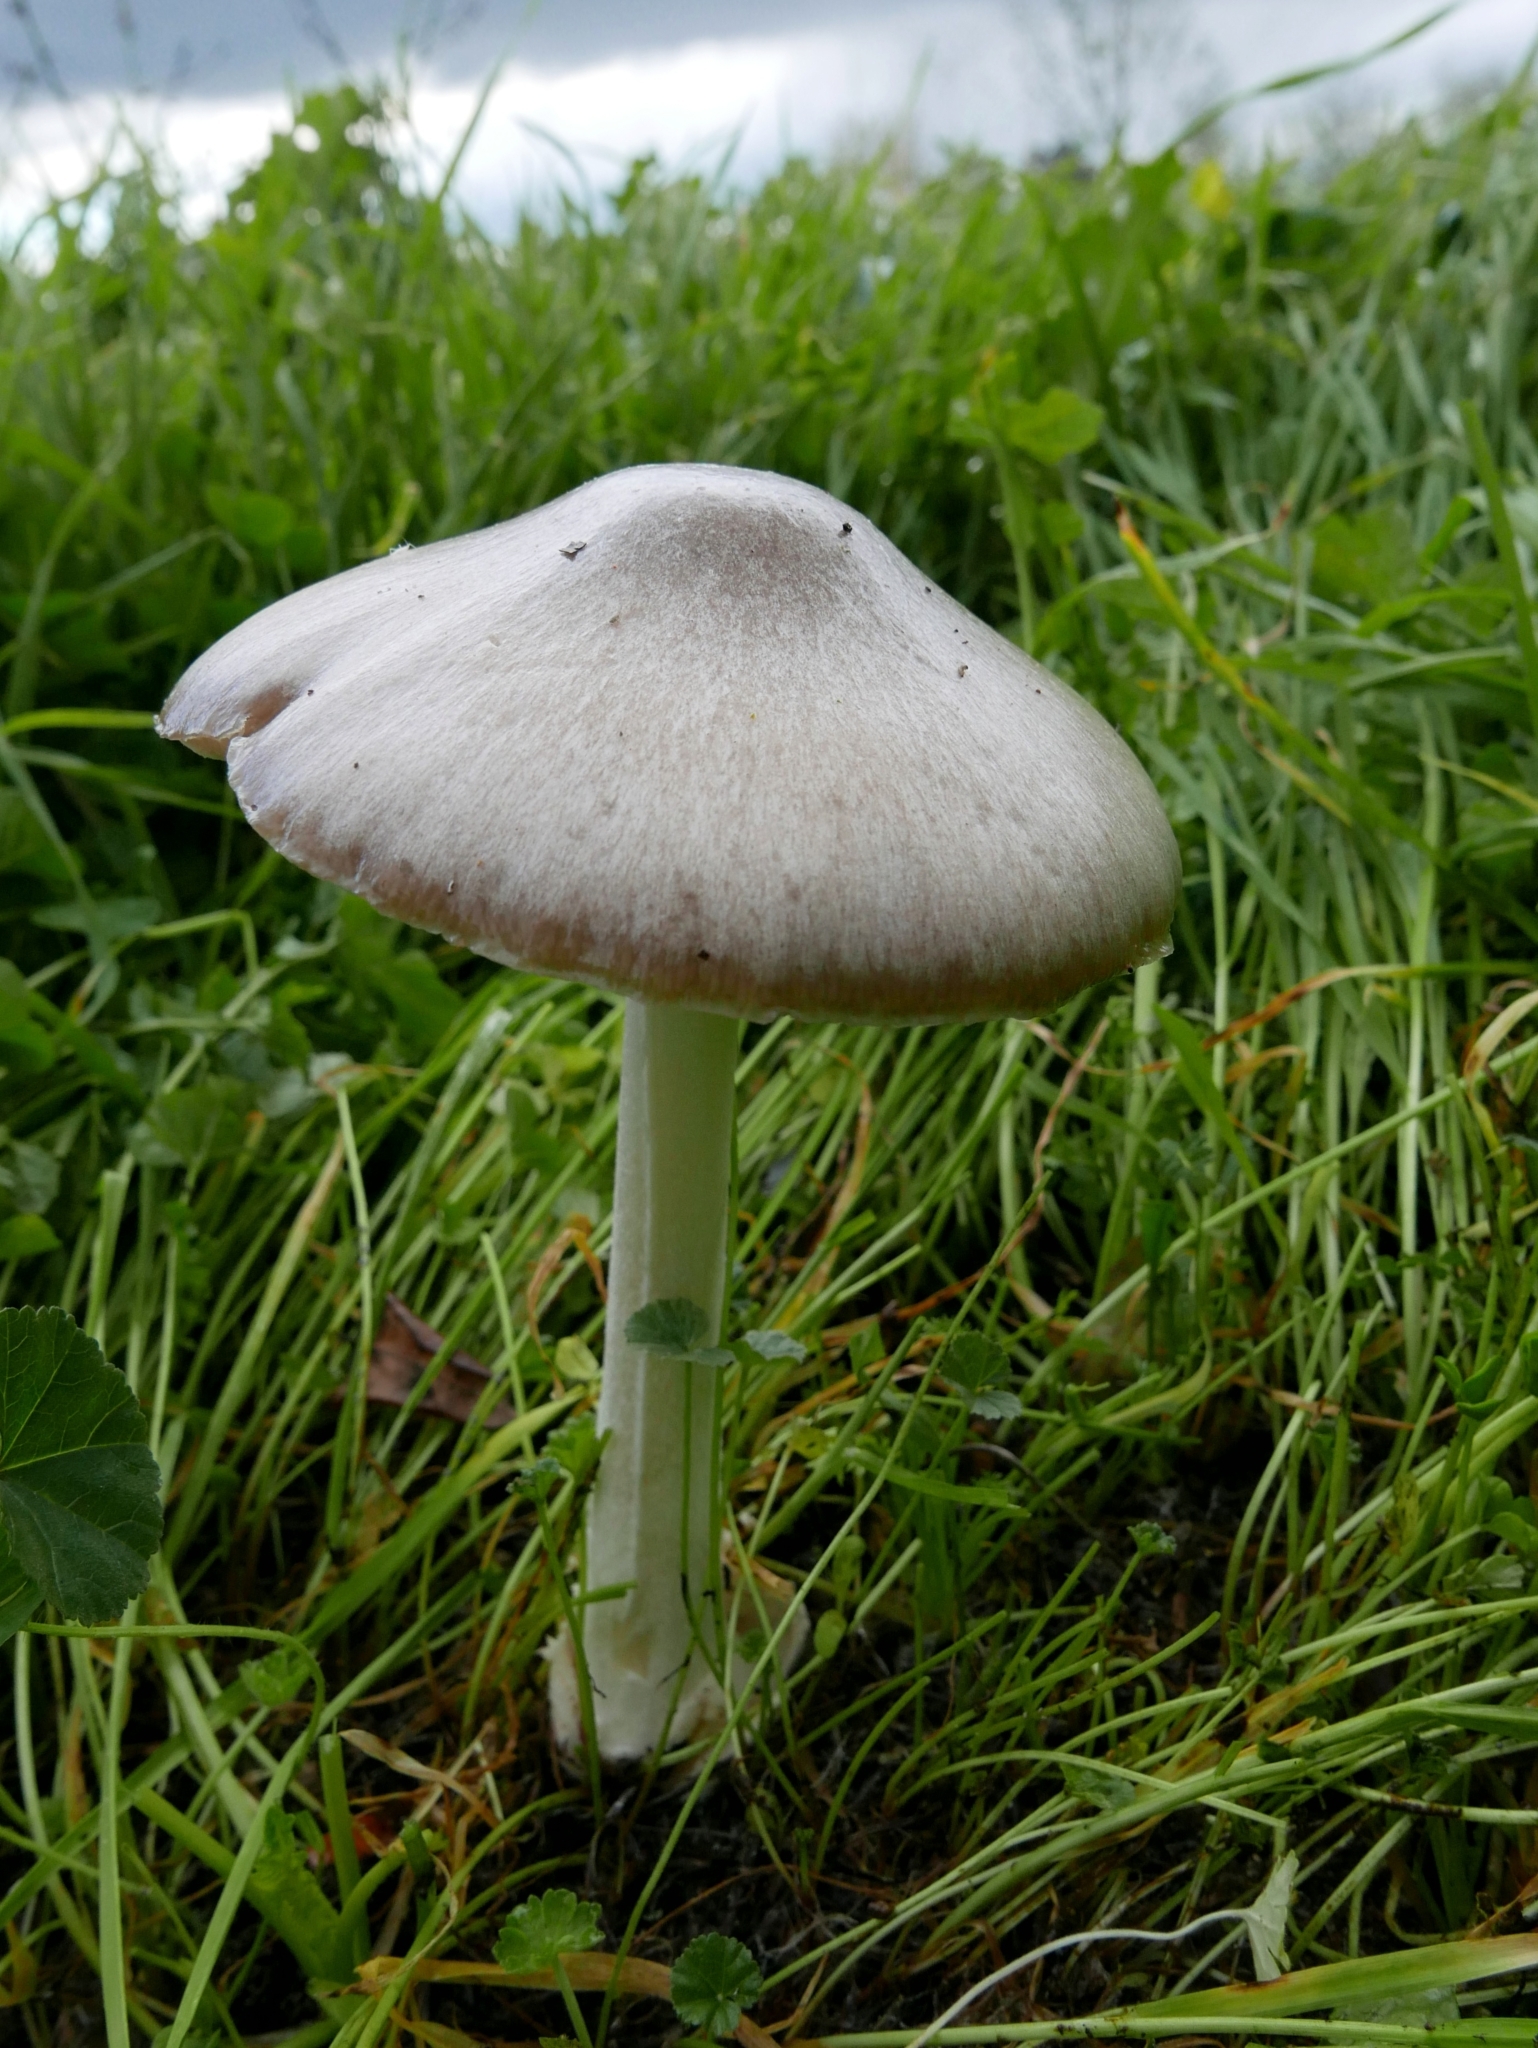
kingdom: Fungi
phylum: Basidiomycota
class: Agaricomycetes
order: Agaricales
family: Pluteaceae
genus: Volvopluteus
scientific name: Volvopluteus gloiocephalus
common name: Stubble rosegill
